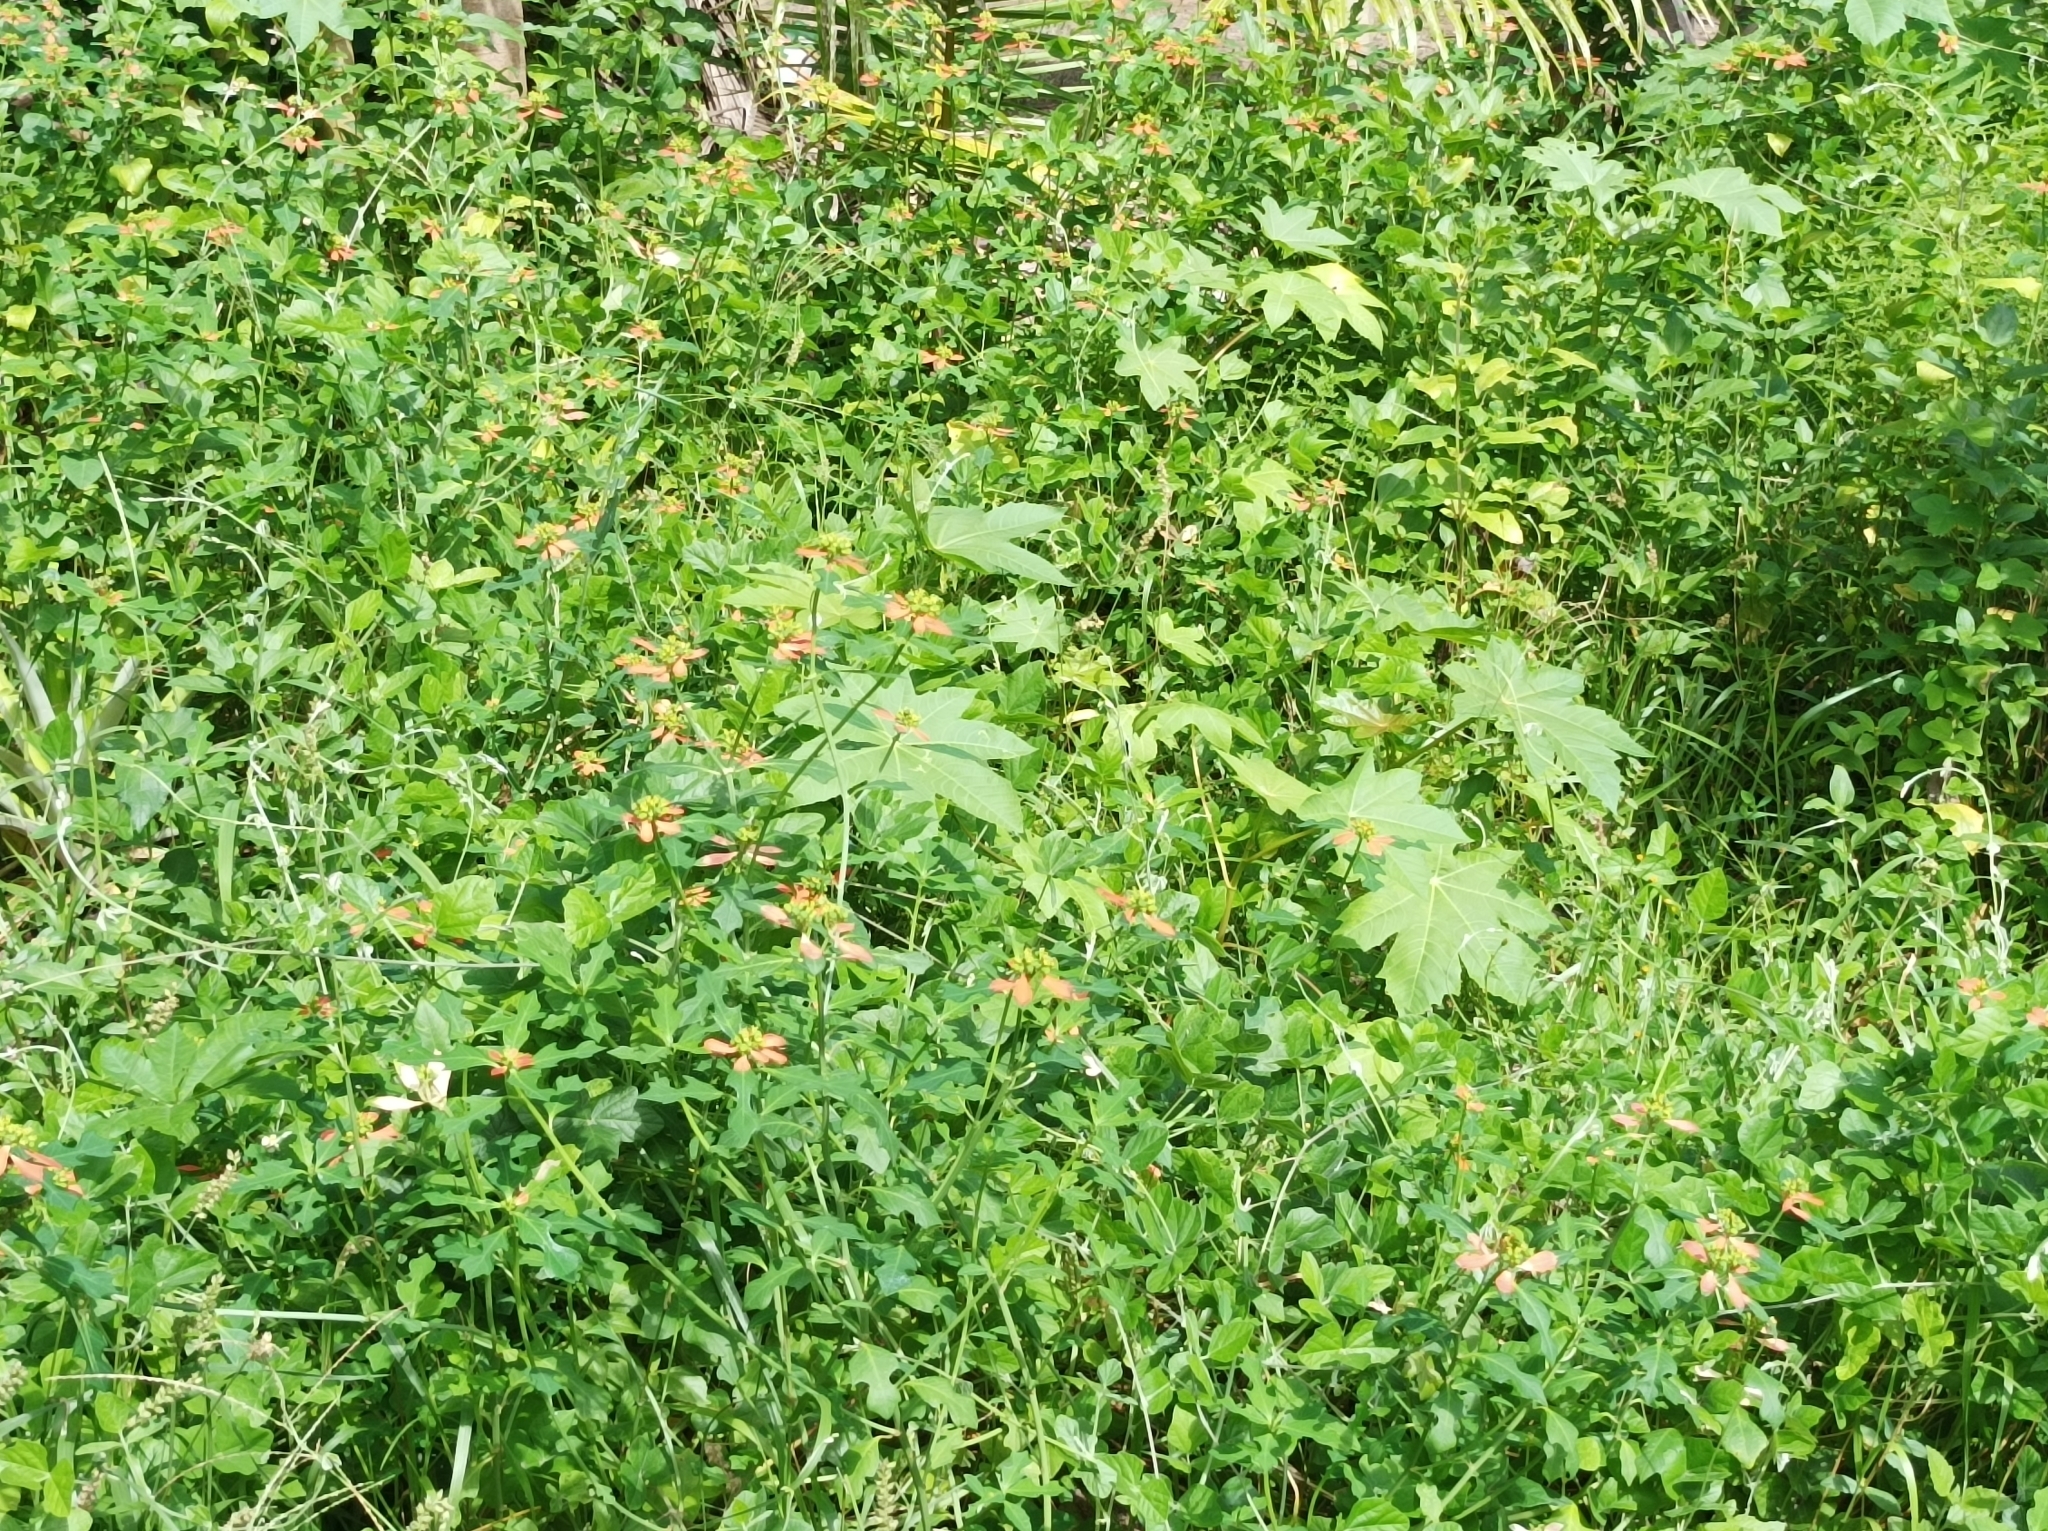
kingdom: Plantae
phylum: Tracheophyta
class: Magnoliopsida
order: Malpighiales
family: Euphorbiaceae
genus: Euphorbia
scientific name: Euphorbia heterophylla
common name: Mexican fireplant
